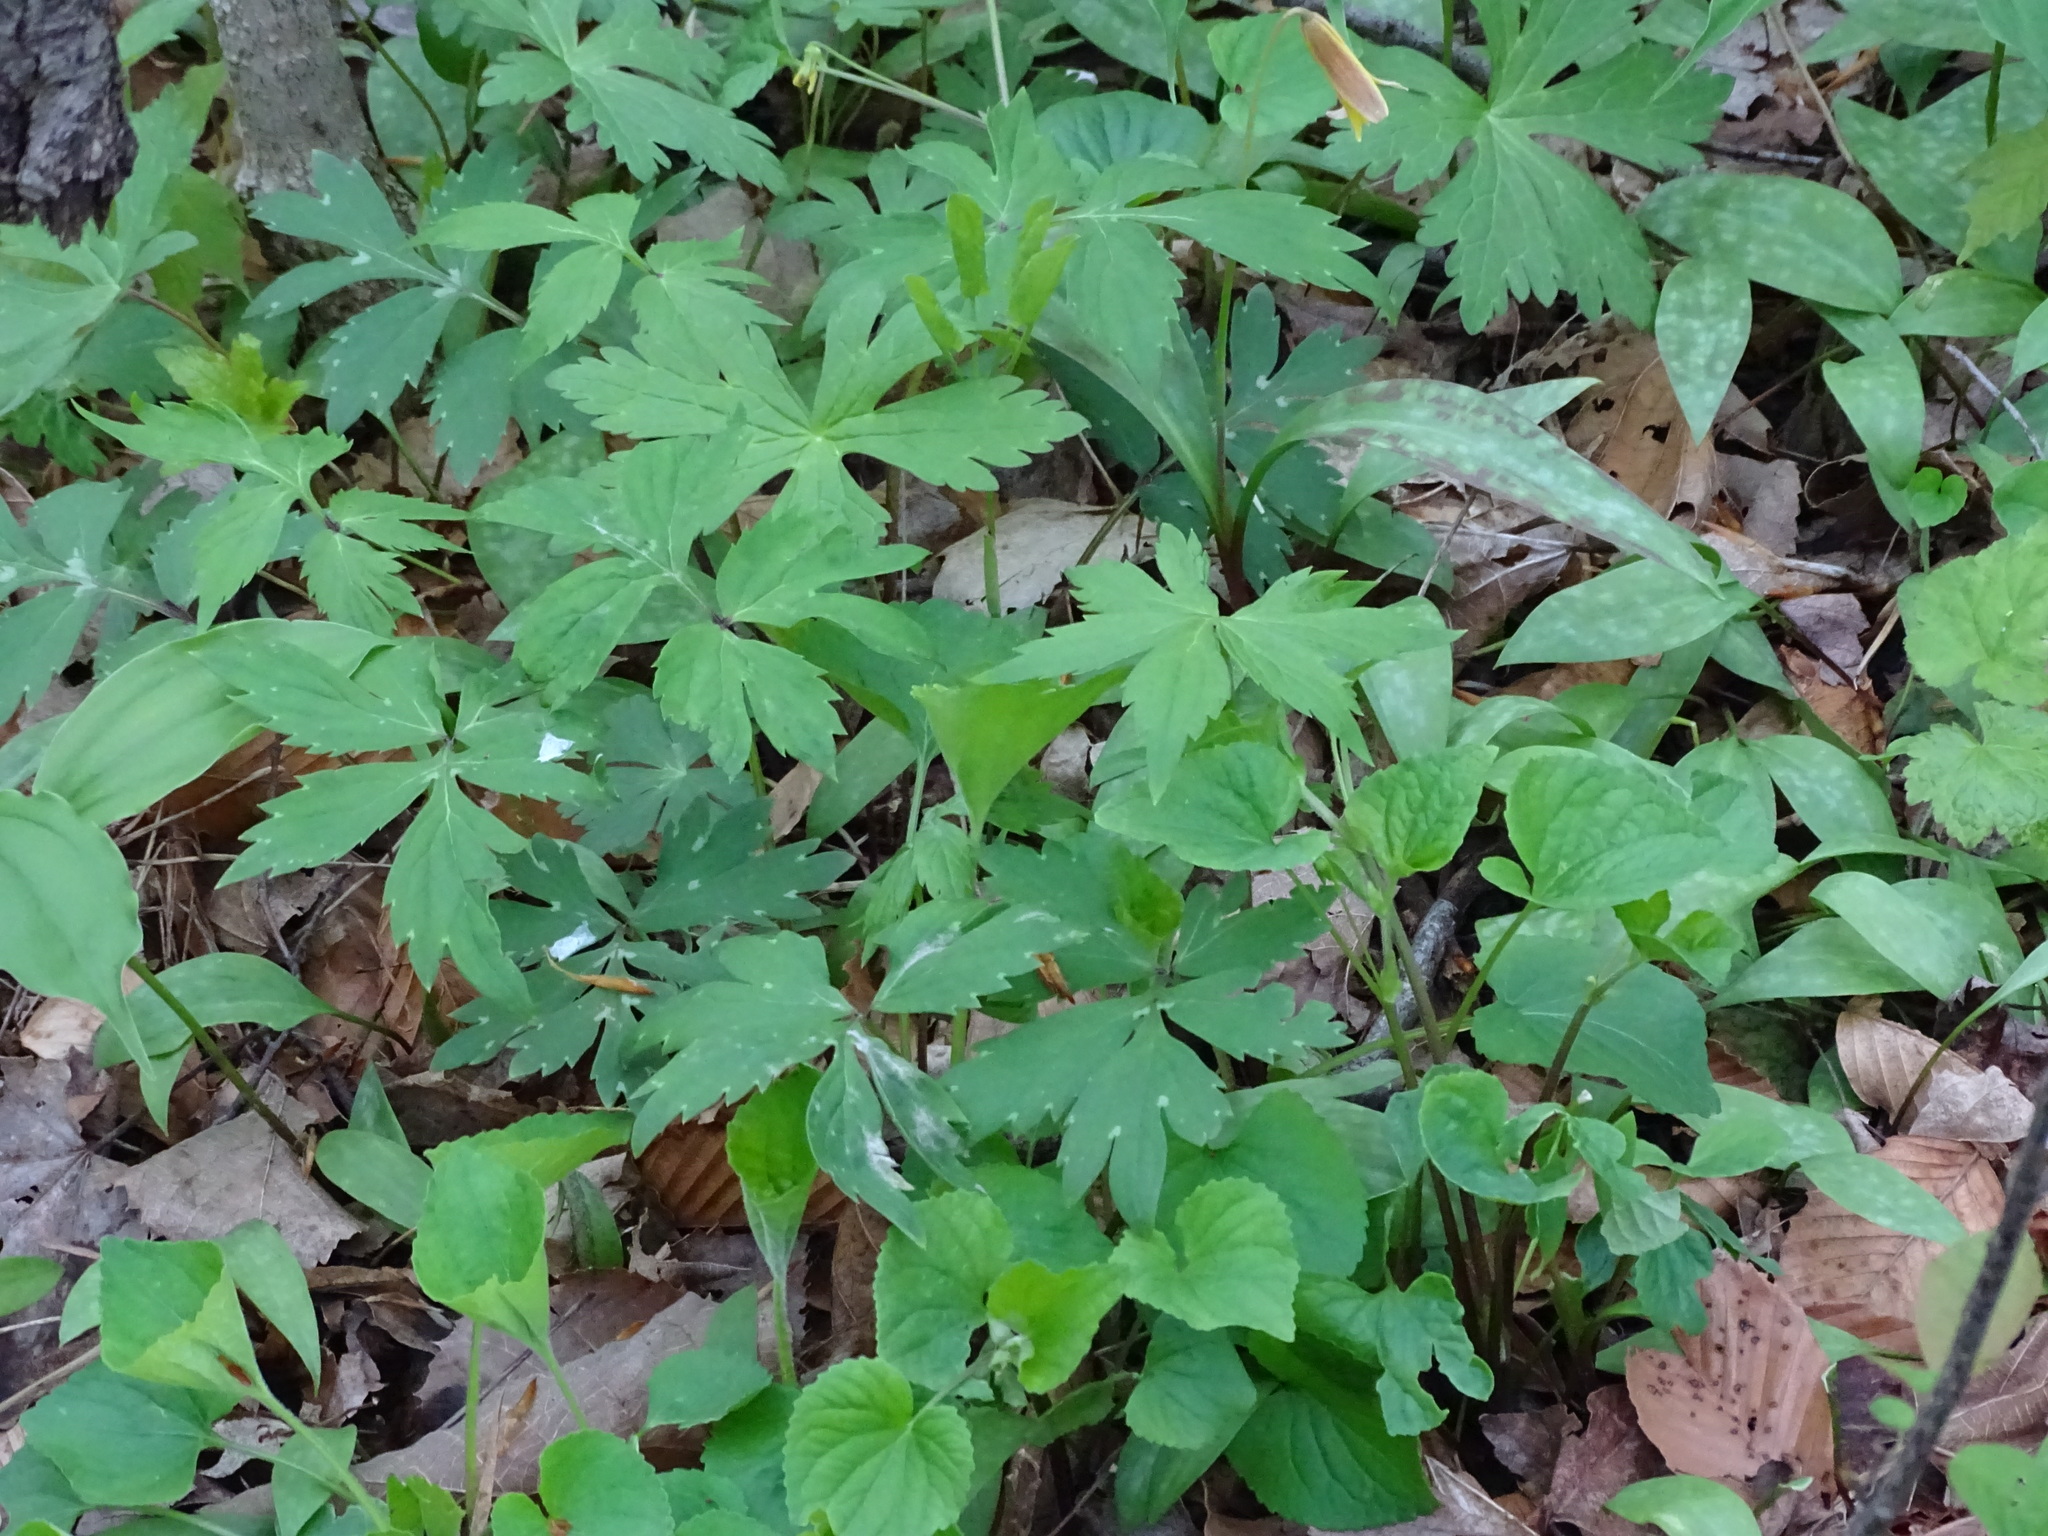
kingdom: Plantae
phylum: Tracheophyta
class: Magnoliopsida
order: Boraginales
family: Hydrophyllaceae
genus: Hydrophyllum
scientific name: Hydrophyllum virginianum
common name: Virginia waterleaf
